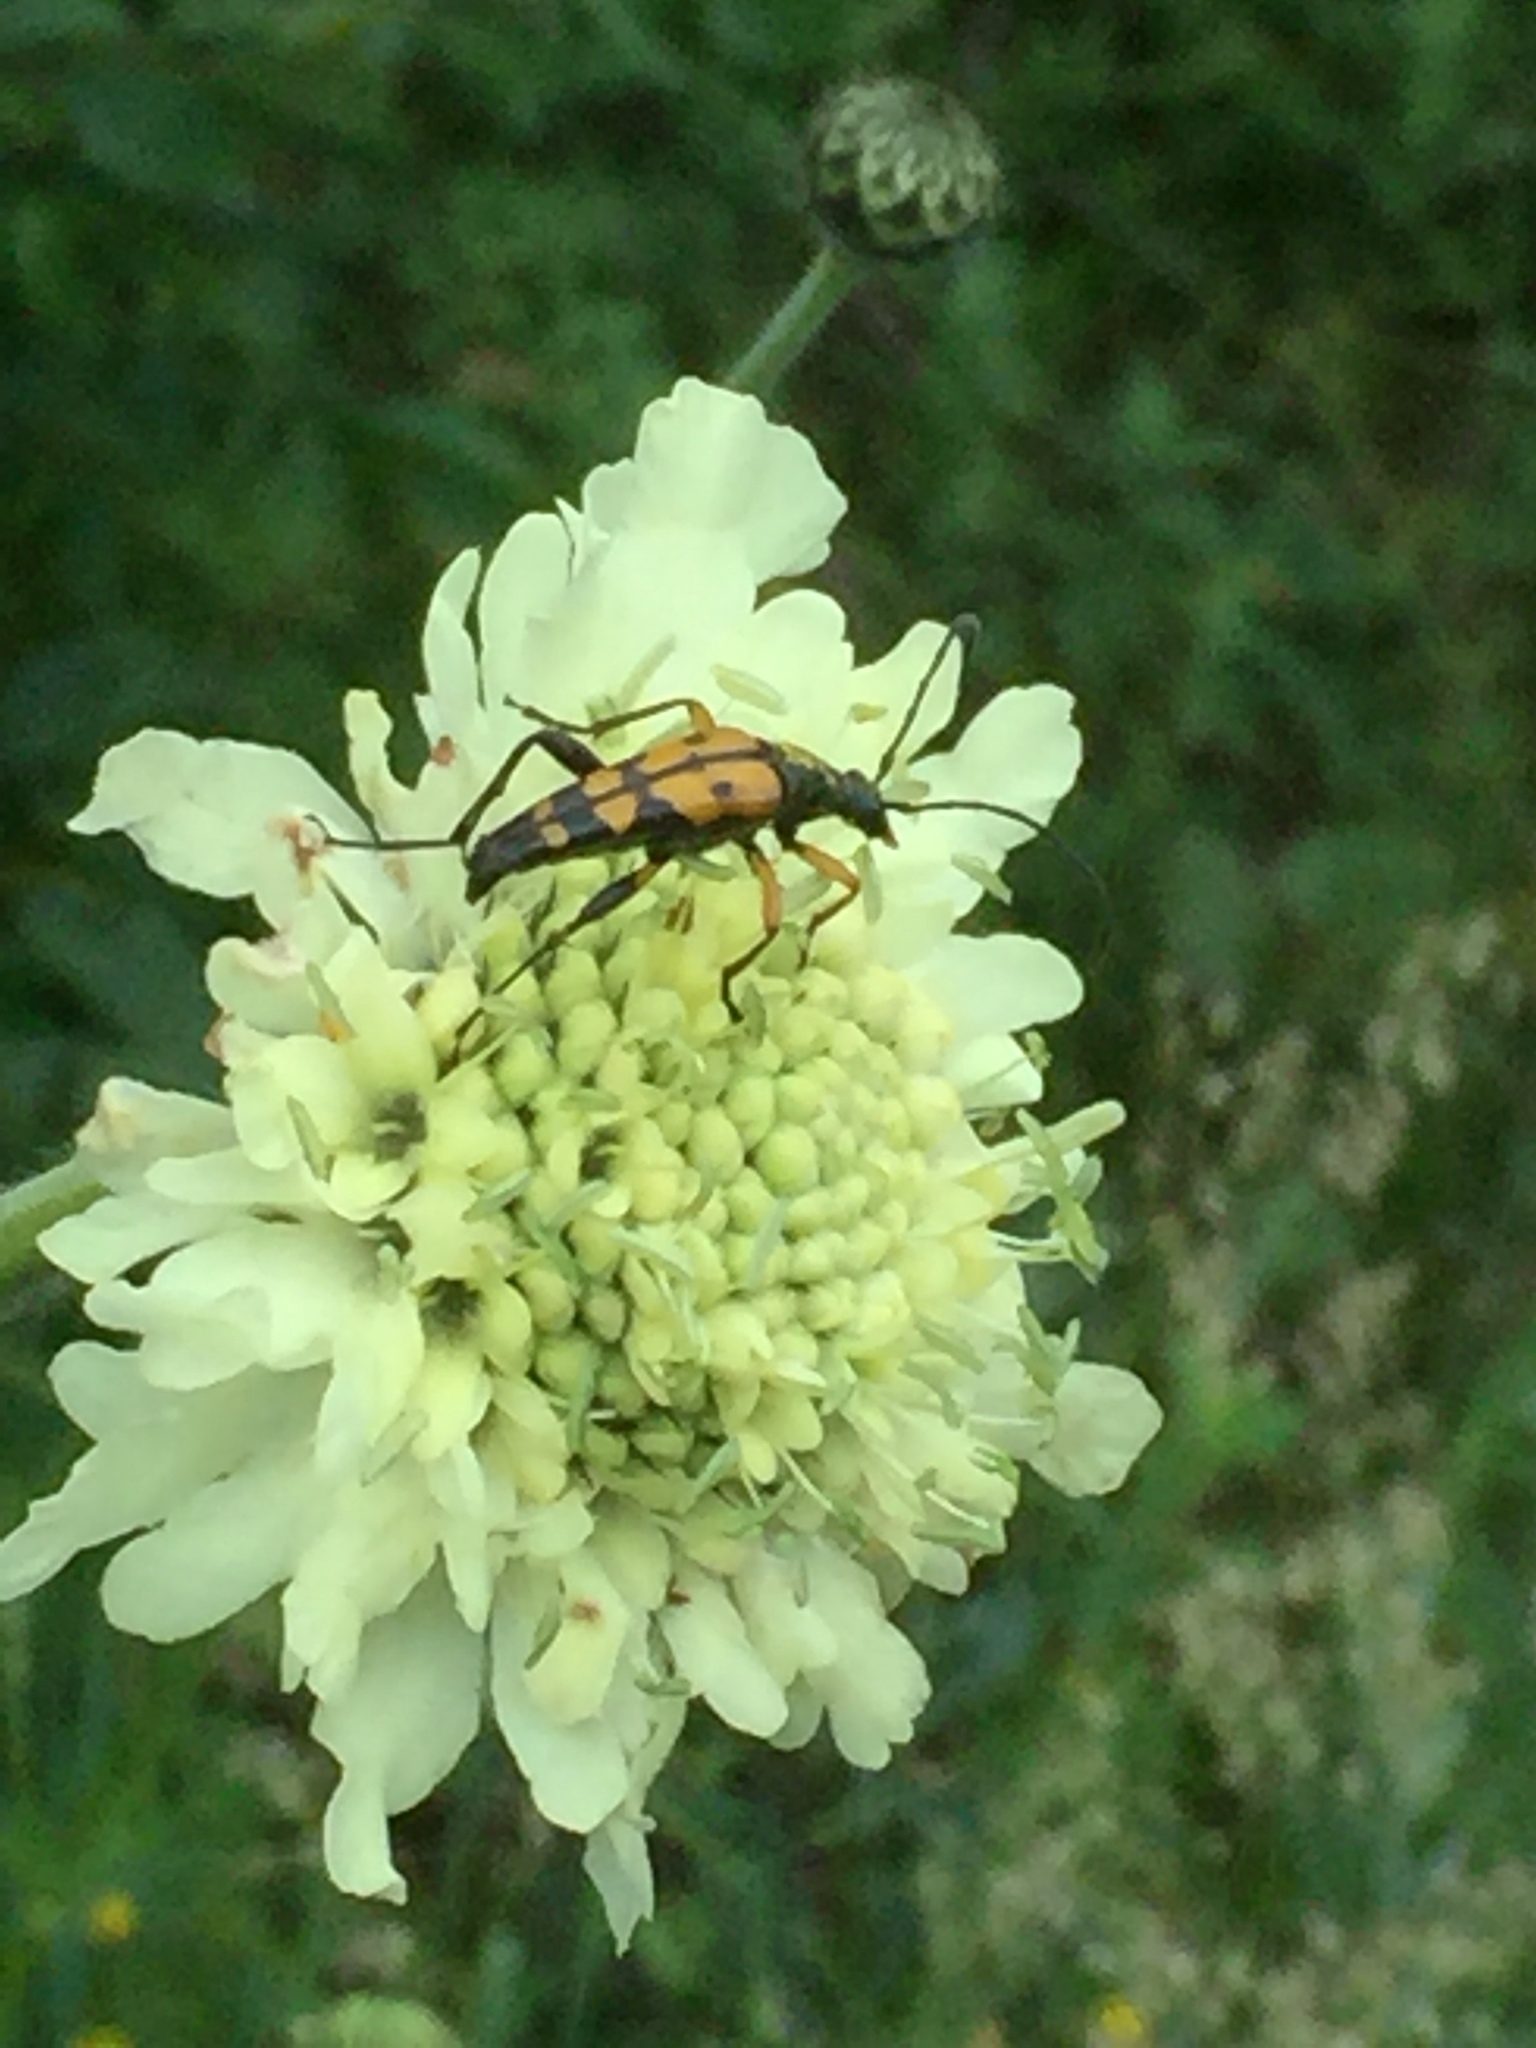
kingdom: Animalia
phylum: Arthropoda
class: Insecta
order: Coleoptera
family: Cerambycidae
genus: Rutpela
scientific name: Rutpela maculata
